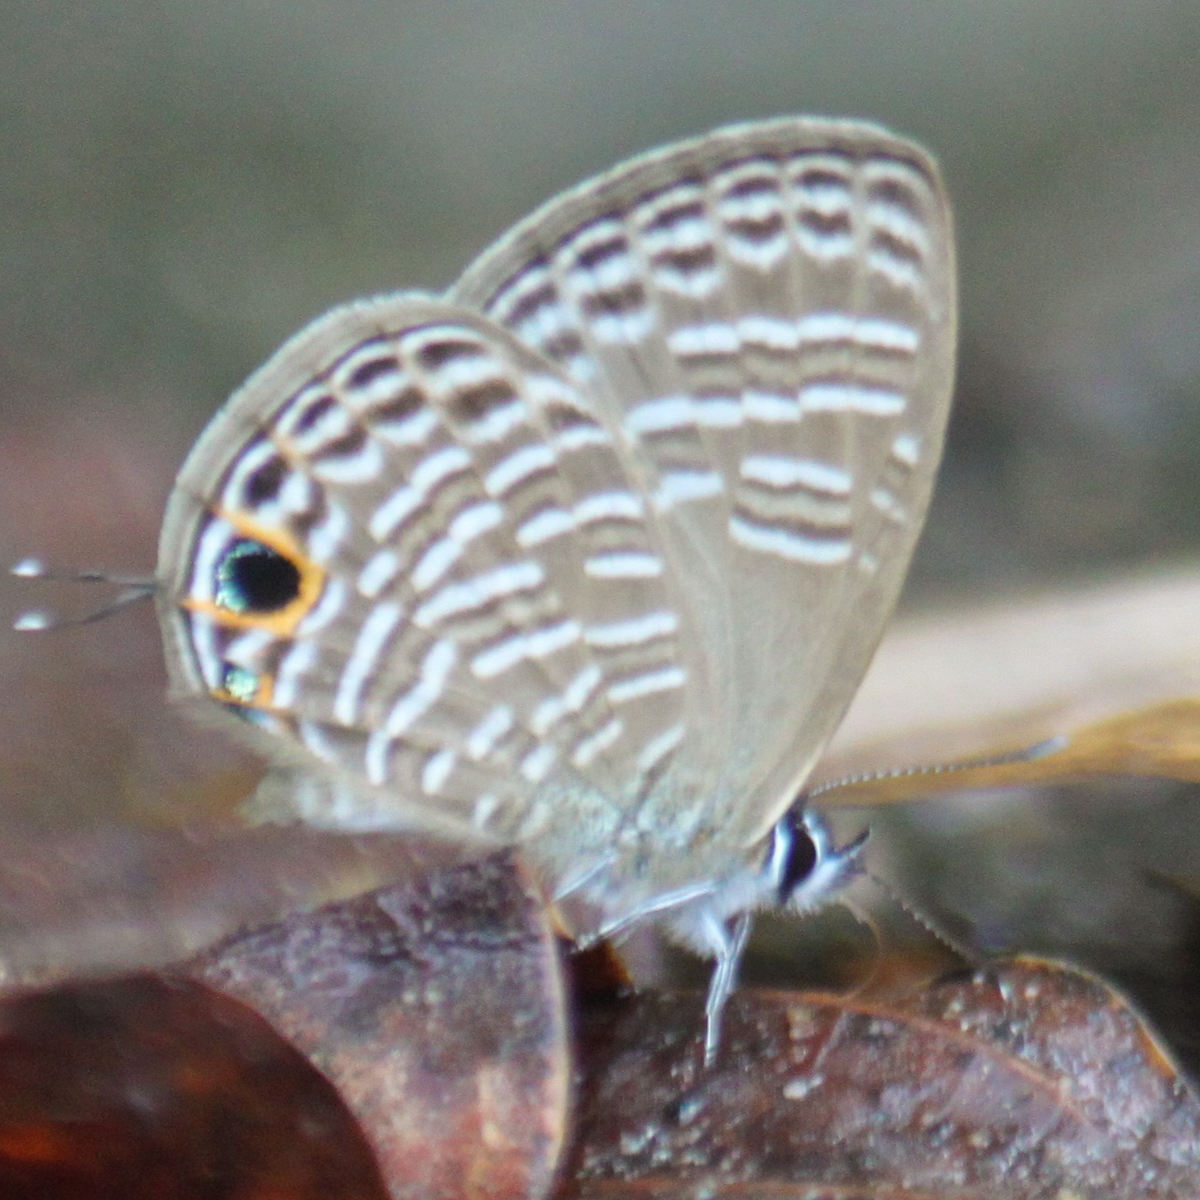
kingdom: Animalia
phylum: Arthropoda
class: Insecta
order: Lepidoptera
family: Lycaenidae
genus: Nacaduba
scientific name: Nacaduba pavana
